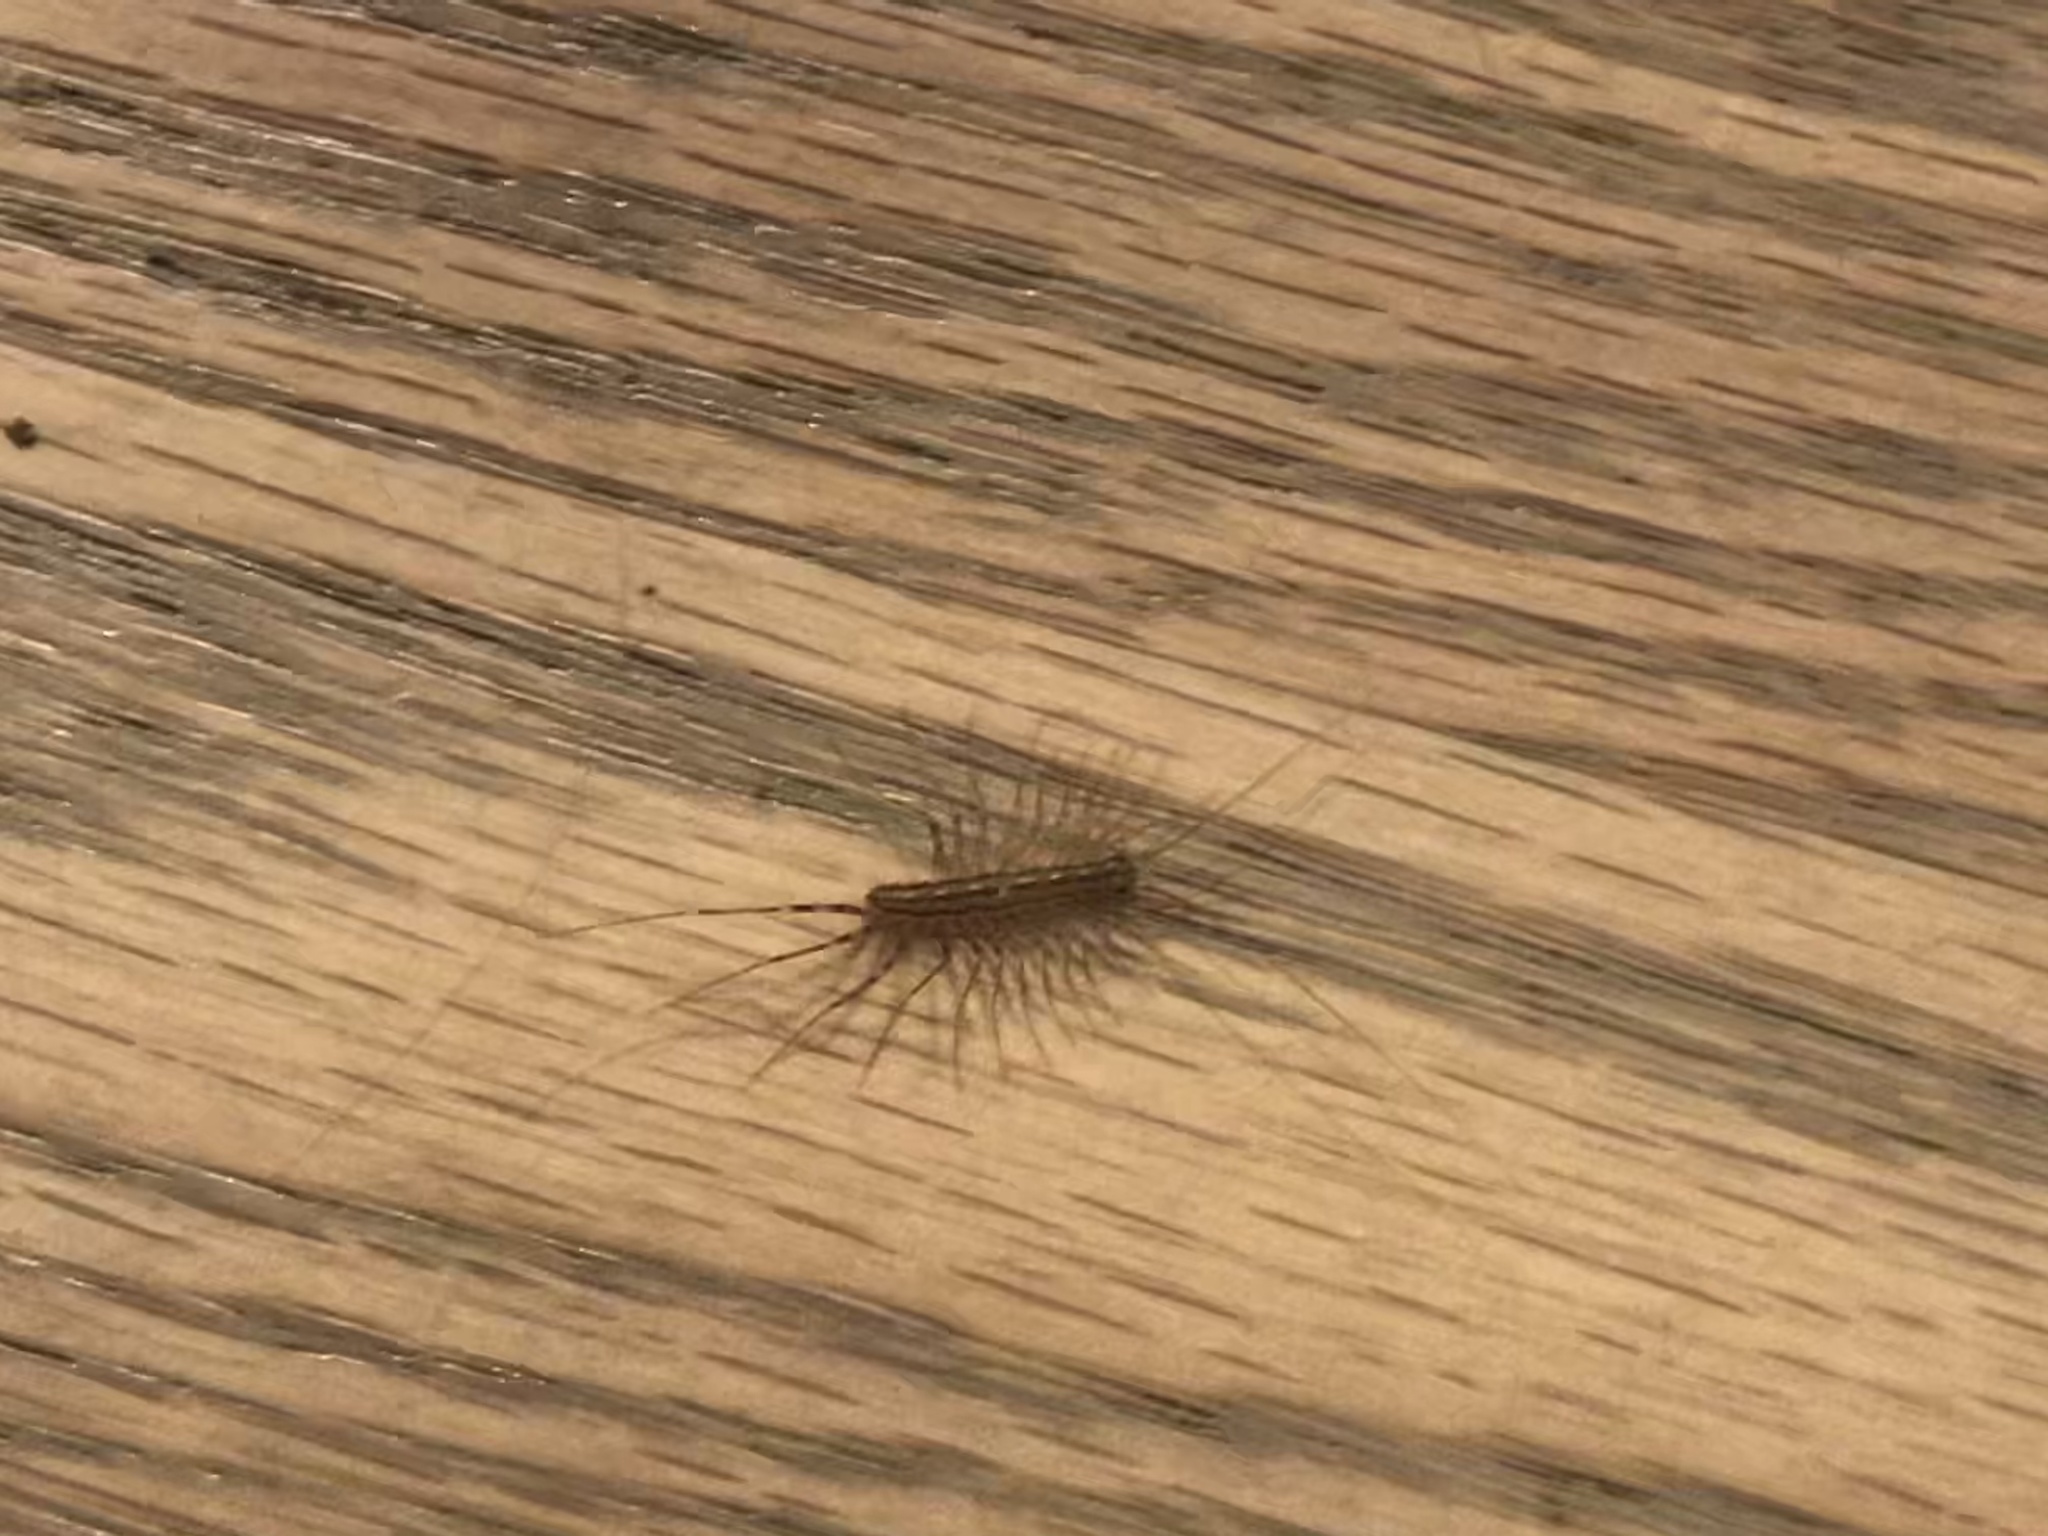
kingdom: Animalia
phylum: Arthropoda
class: Chilopoda
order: Scutigeromorpha
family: Scutigeridae
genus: Scutigera
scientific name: Scutigera coleoptrata
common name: House centipede
